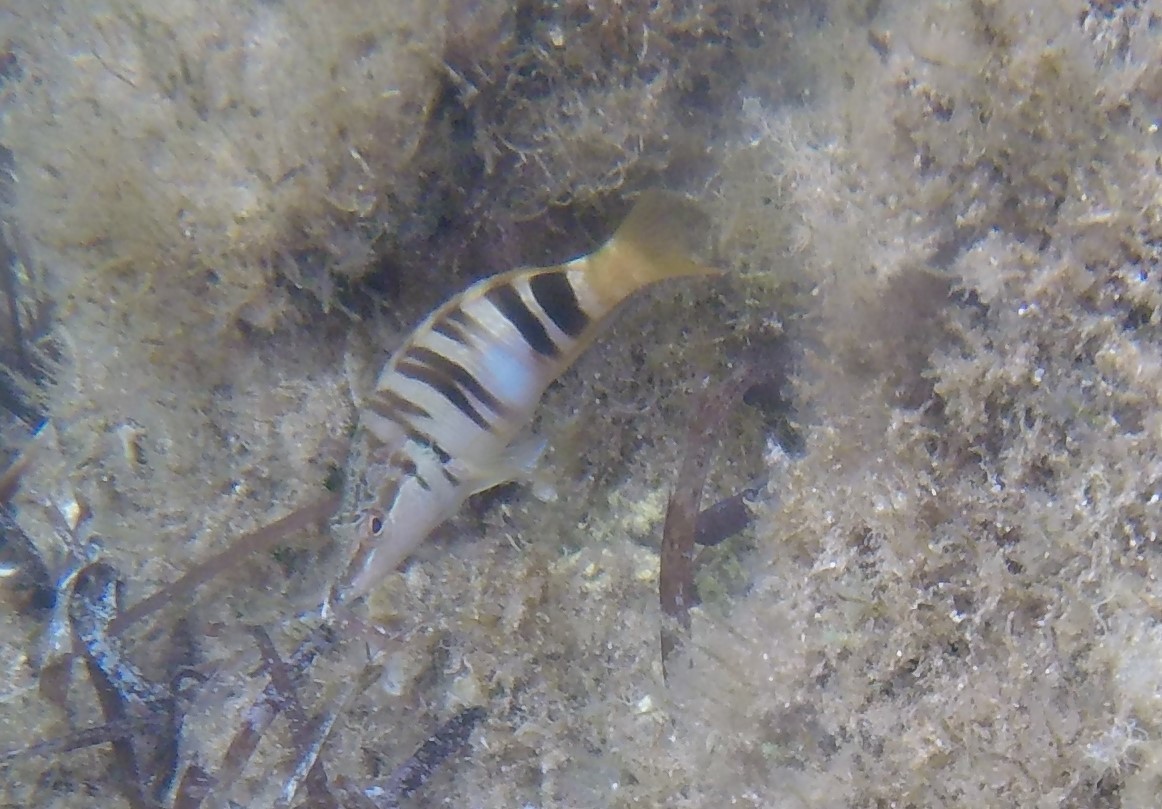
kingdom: Animalia
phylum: Chordata
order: Perciformes
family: Serranidae
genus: Serranus
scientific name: Serranus scriba
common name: Painted comber
